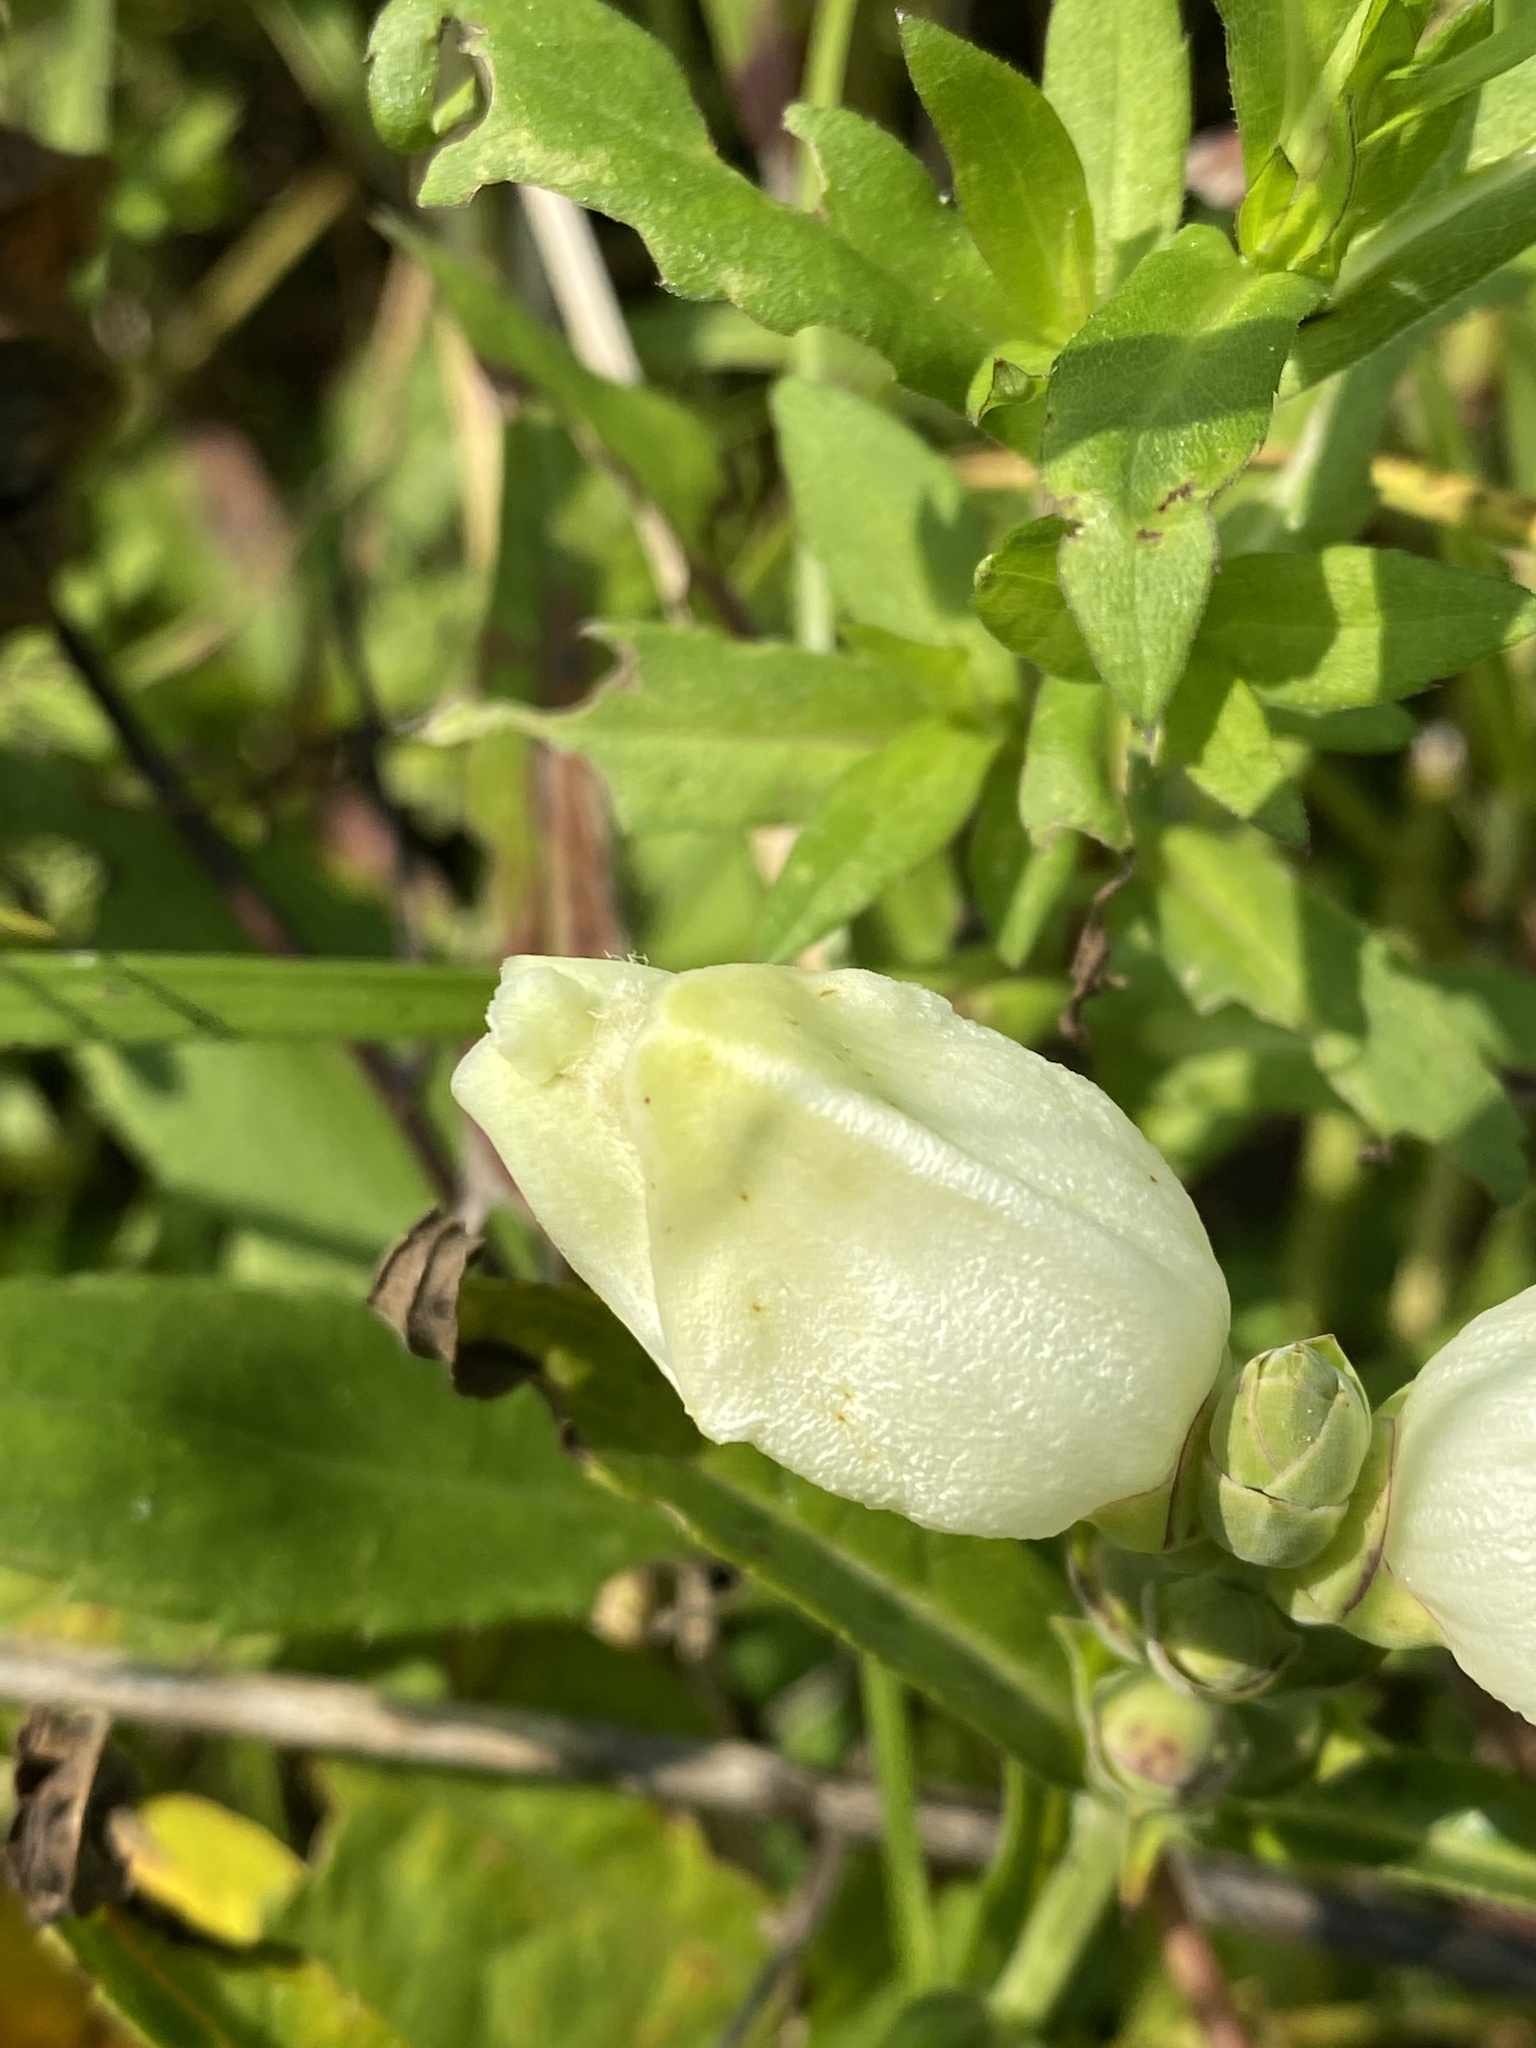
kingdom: Plantae
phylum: Tracheophyta
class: Magnoliopsida
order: Lamiales
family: Plantaginaceae
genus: Chelone
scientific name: Chelone glabra
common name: Snakehead
